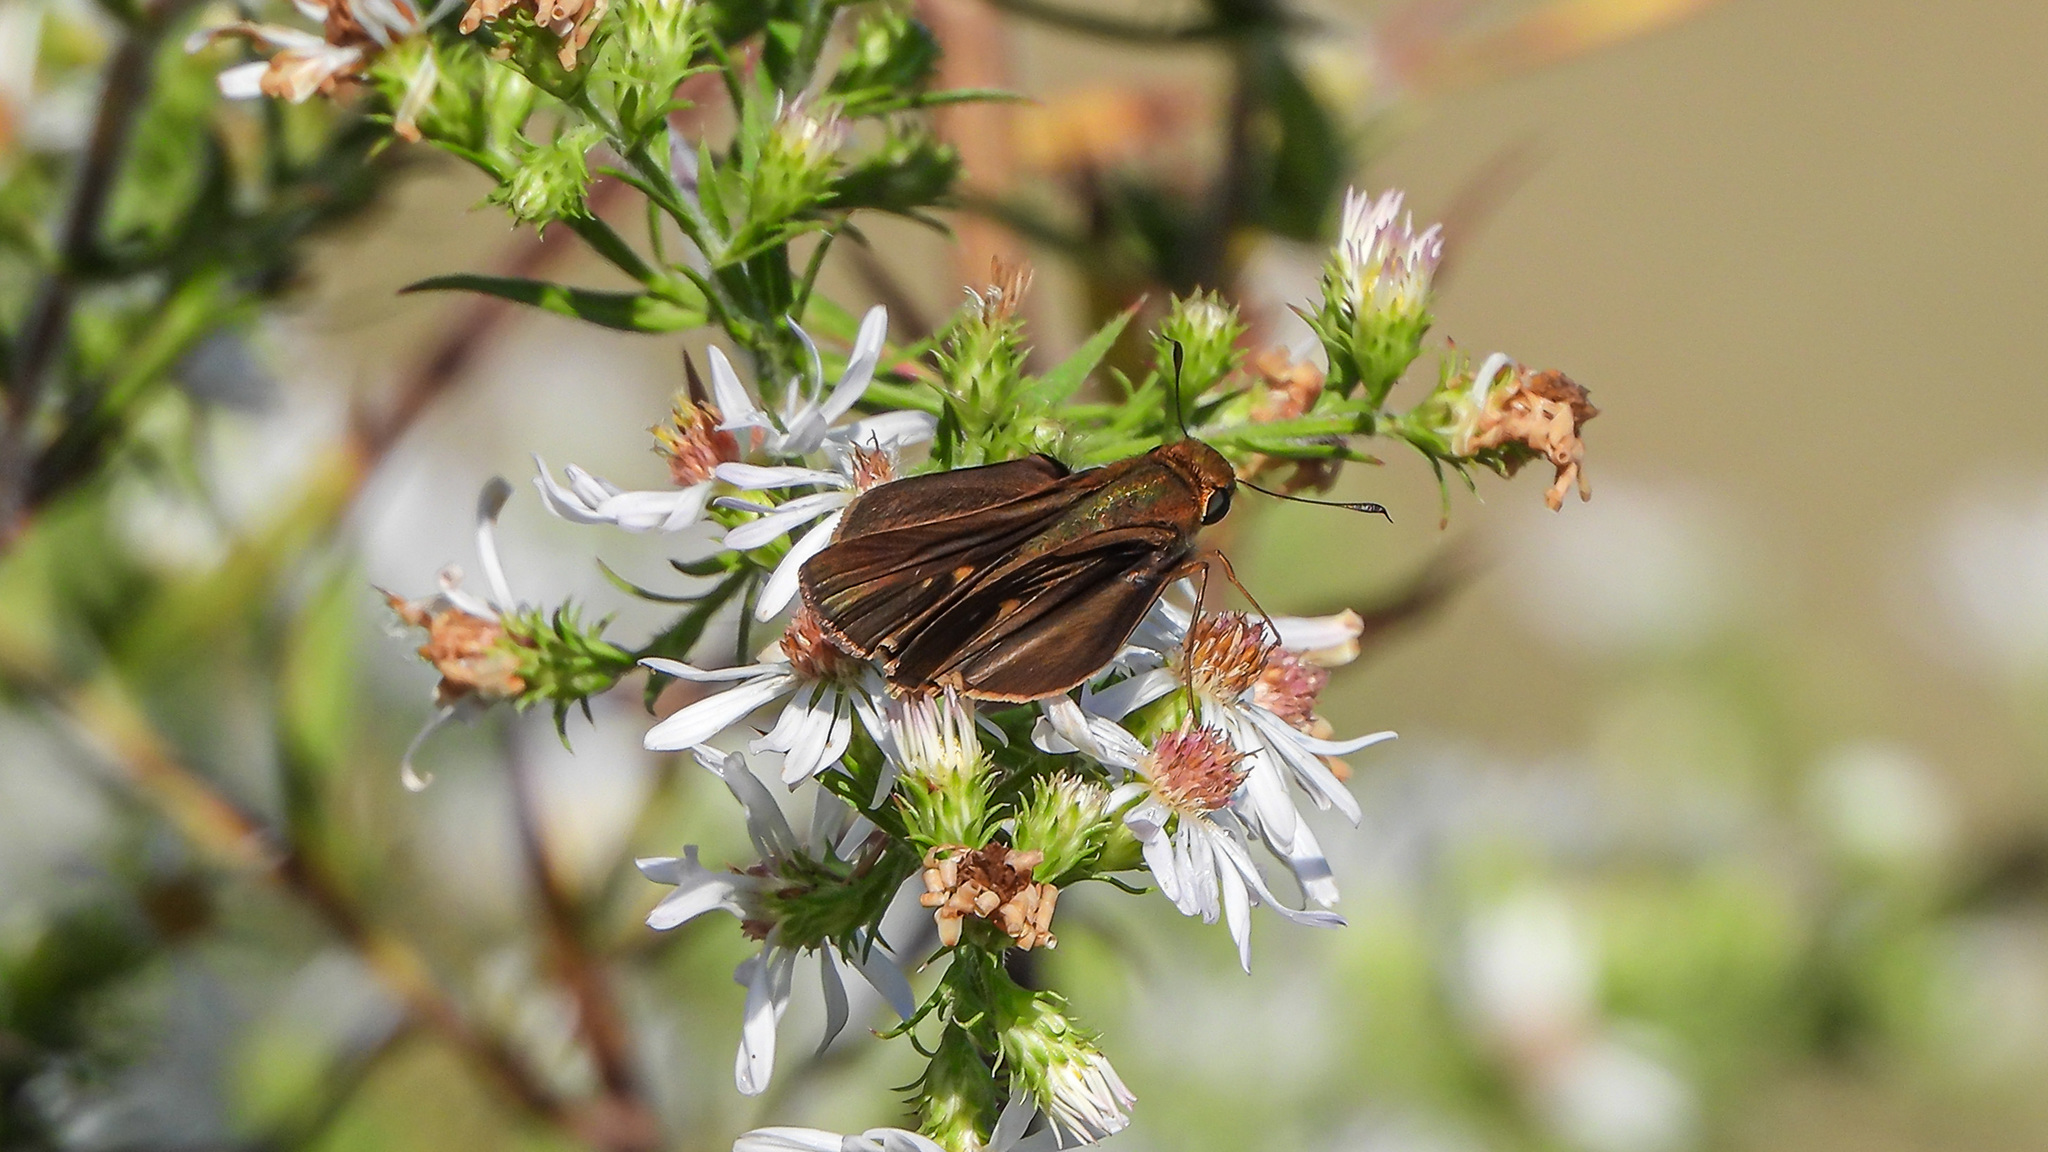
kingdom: Animalia
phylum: Arthropoda
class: Insecta
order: Lepidoptera
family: Hesperiidae
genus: Panoquina
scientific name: Panoquina ocola
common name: Ocola skipper
